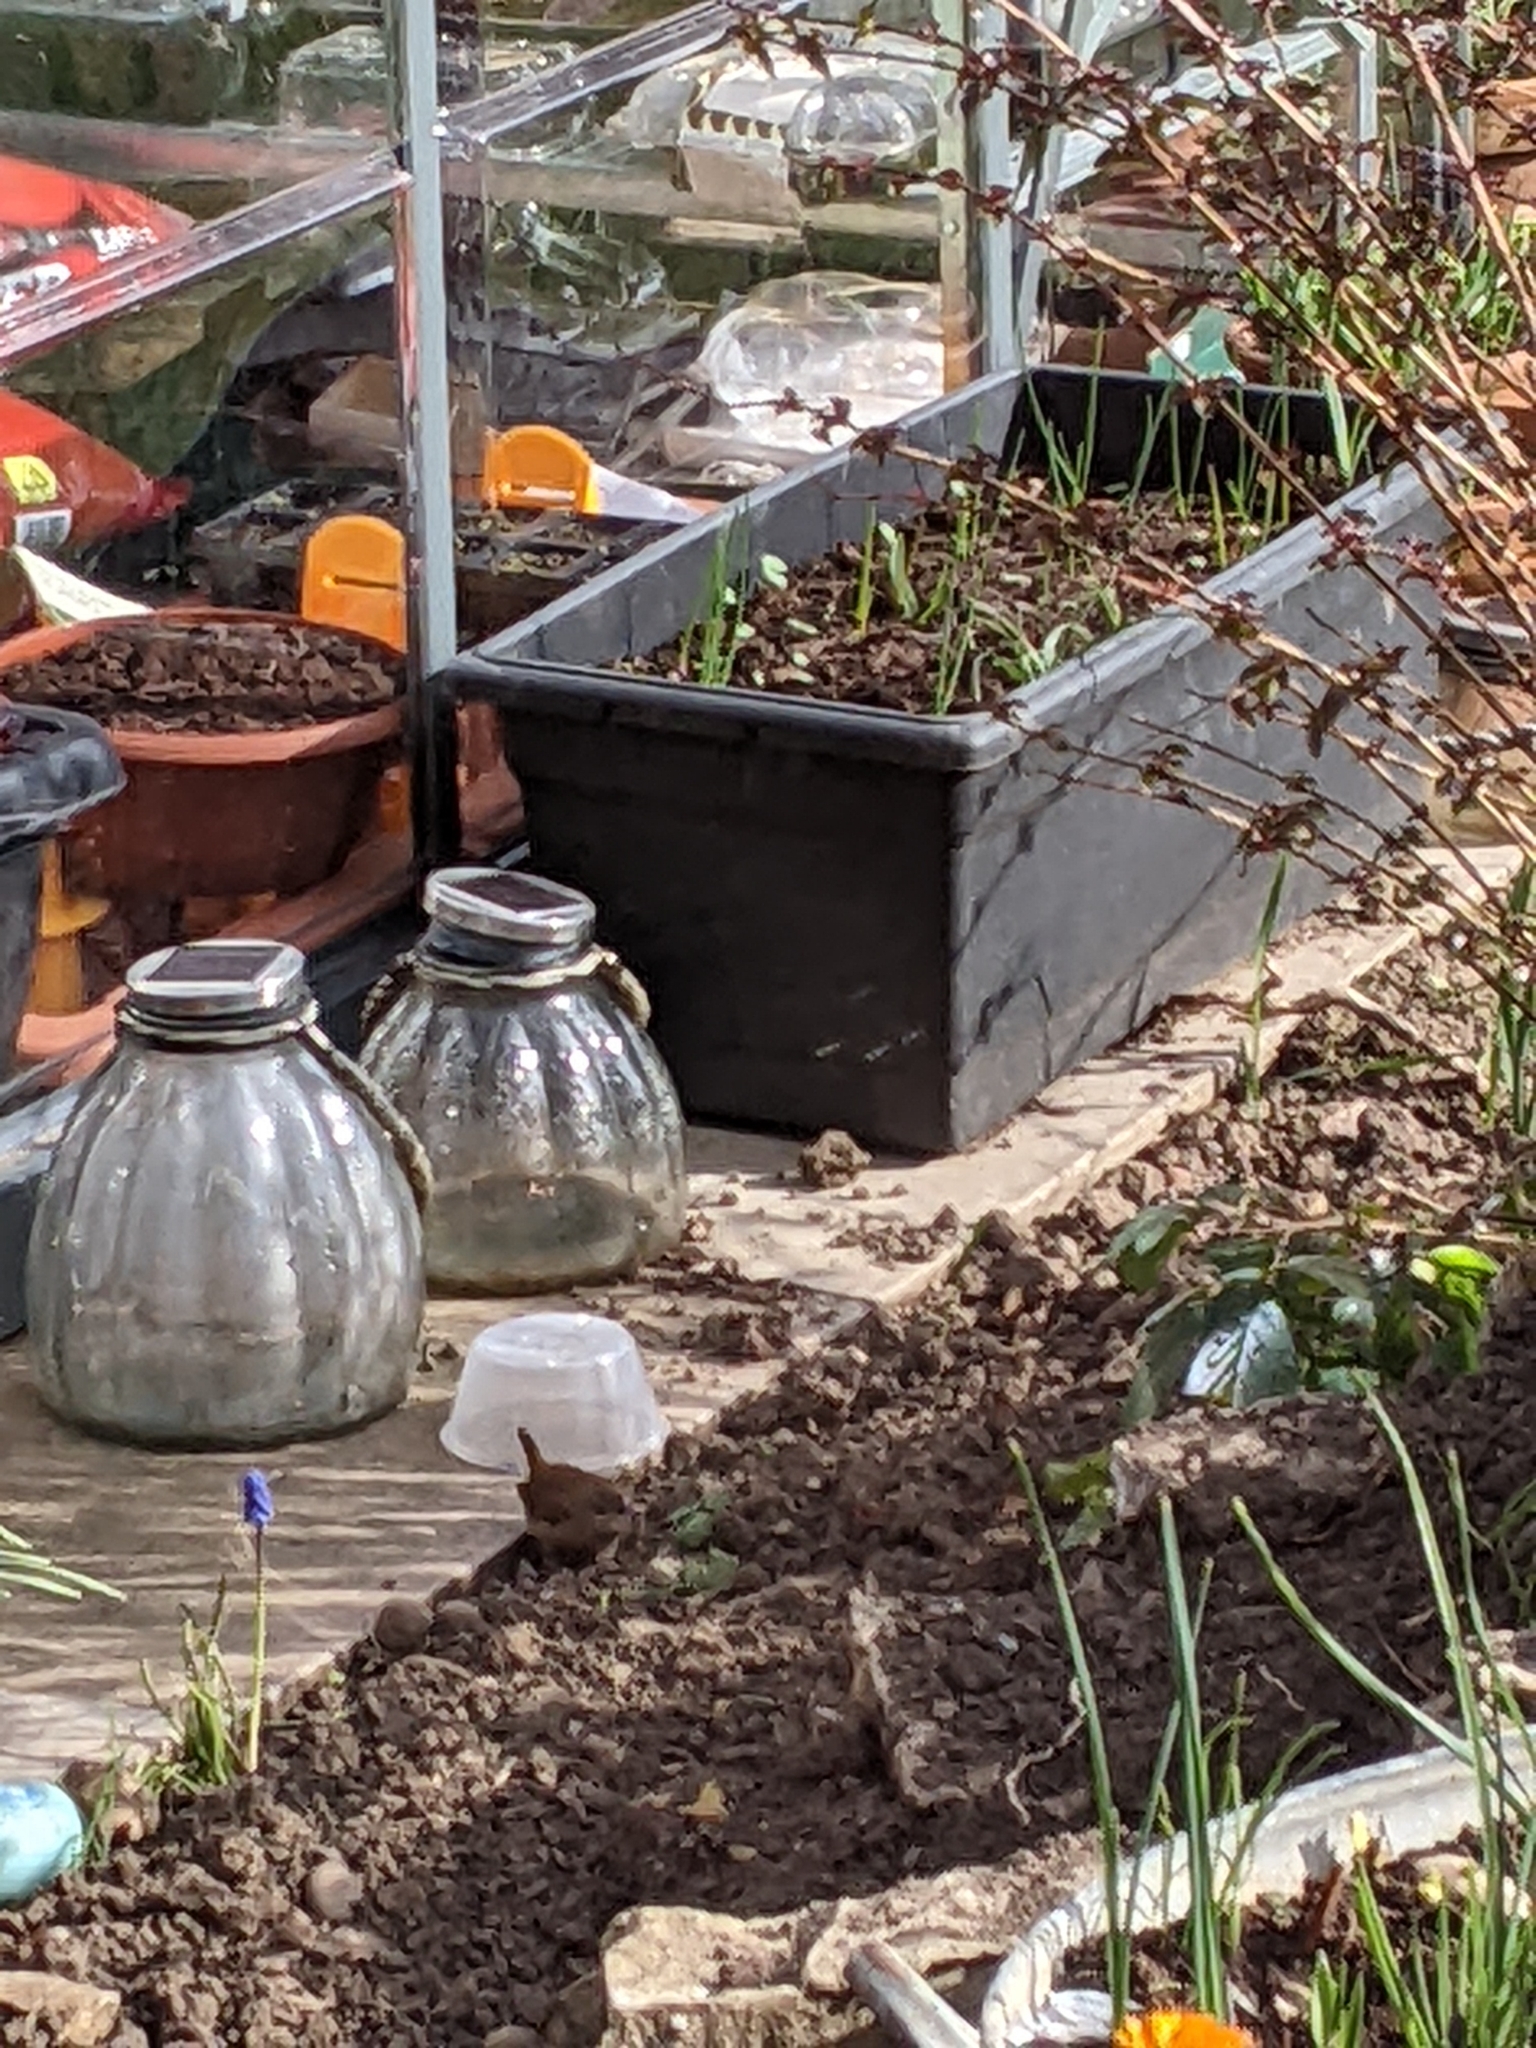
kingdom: Animalia
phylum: Chordata
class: Aves
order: Passeriformes
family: Troglodytidae
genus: Troglodytes
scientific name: Troglodytes troglodytes
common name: Eurasian wren
